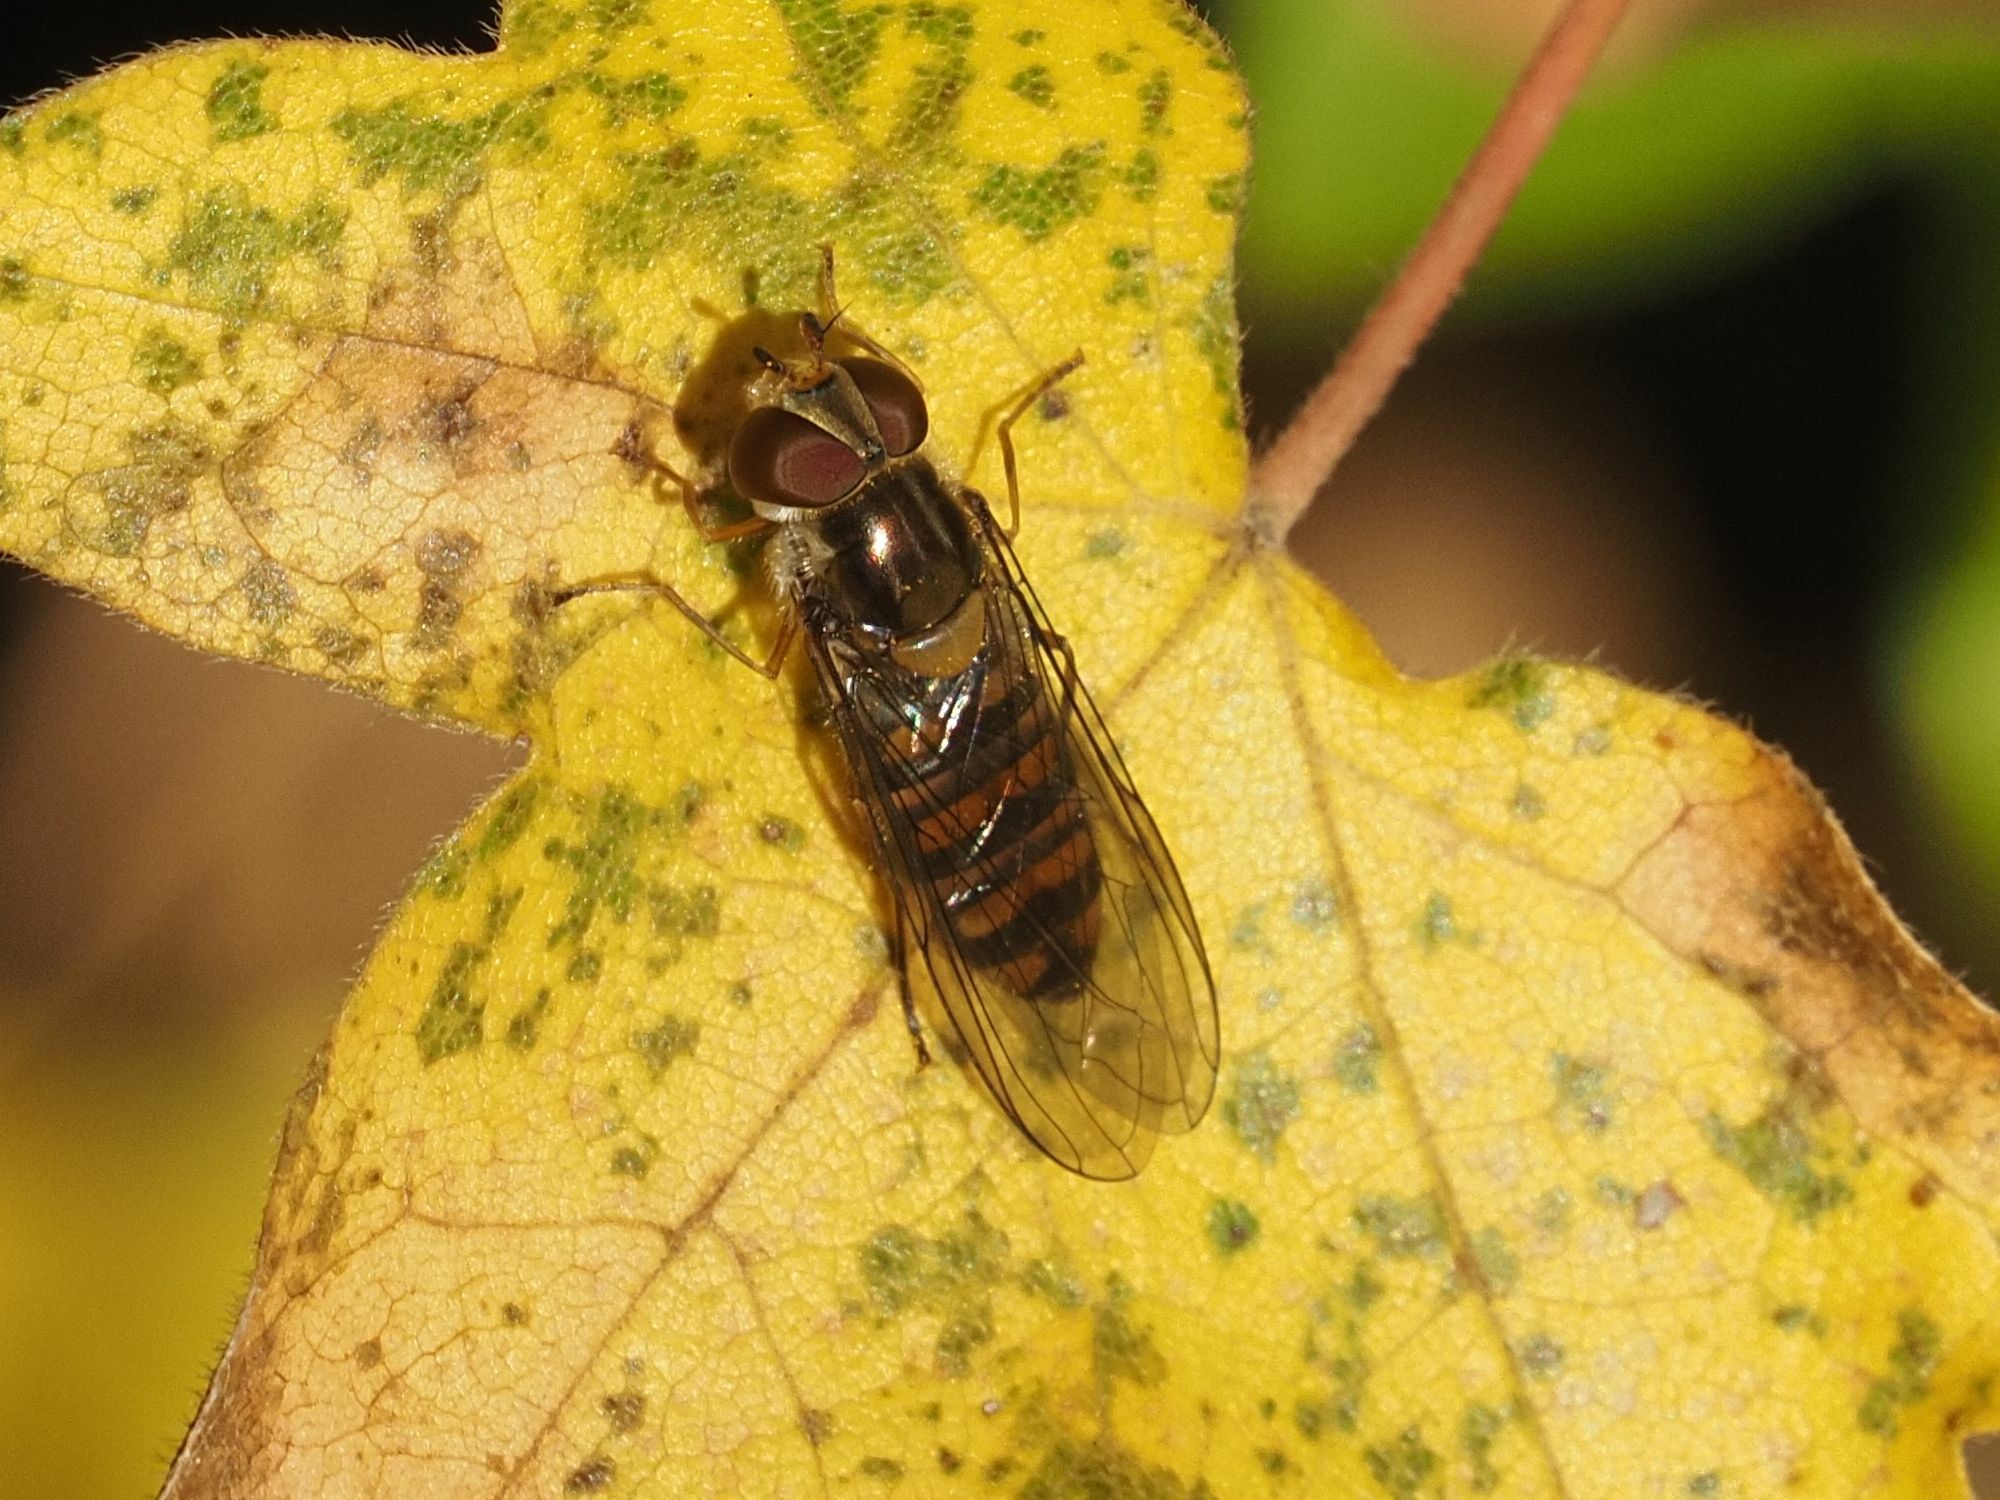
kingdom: Animalia
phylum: Arthropoda
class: Insecta
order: Diptera
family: Syrphidae
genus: Episyrphus
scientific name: Episyrphus balteatus
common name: Marmalade hoverfly
